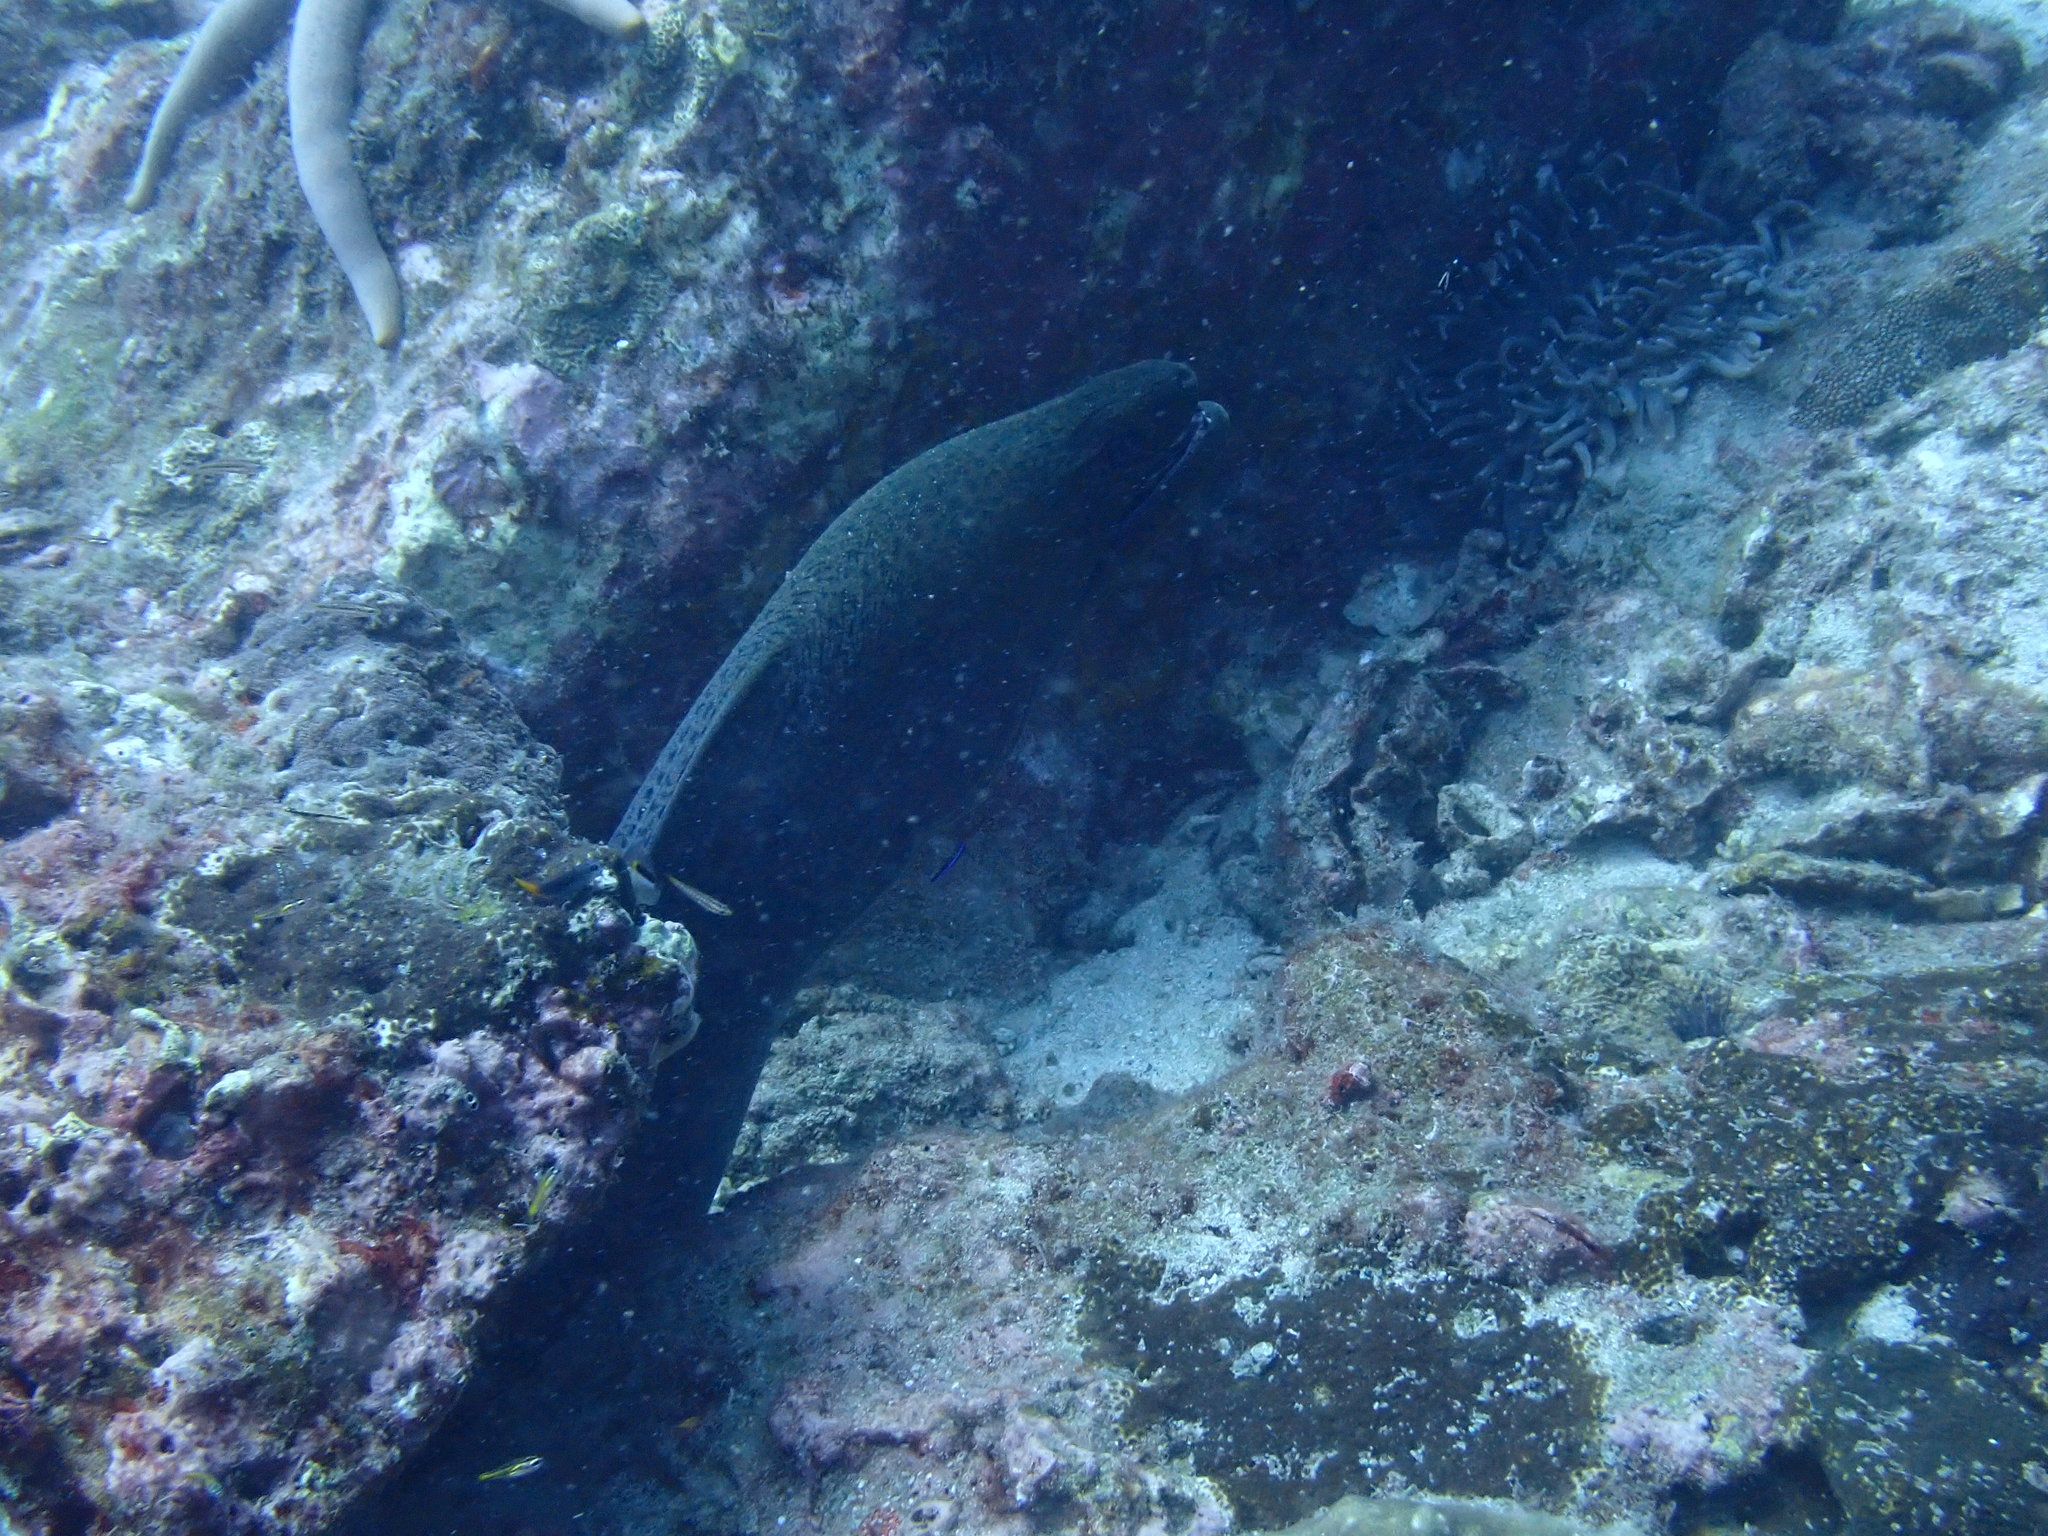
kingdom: Animalia
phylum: Chordata
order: Anguilliformes
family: Muraenidae
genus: Gymnothorax
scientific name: Gymnothorax javanicus
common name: Giant moray
